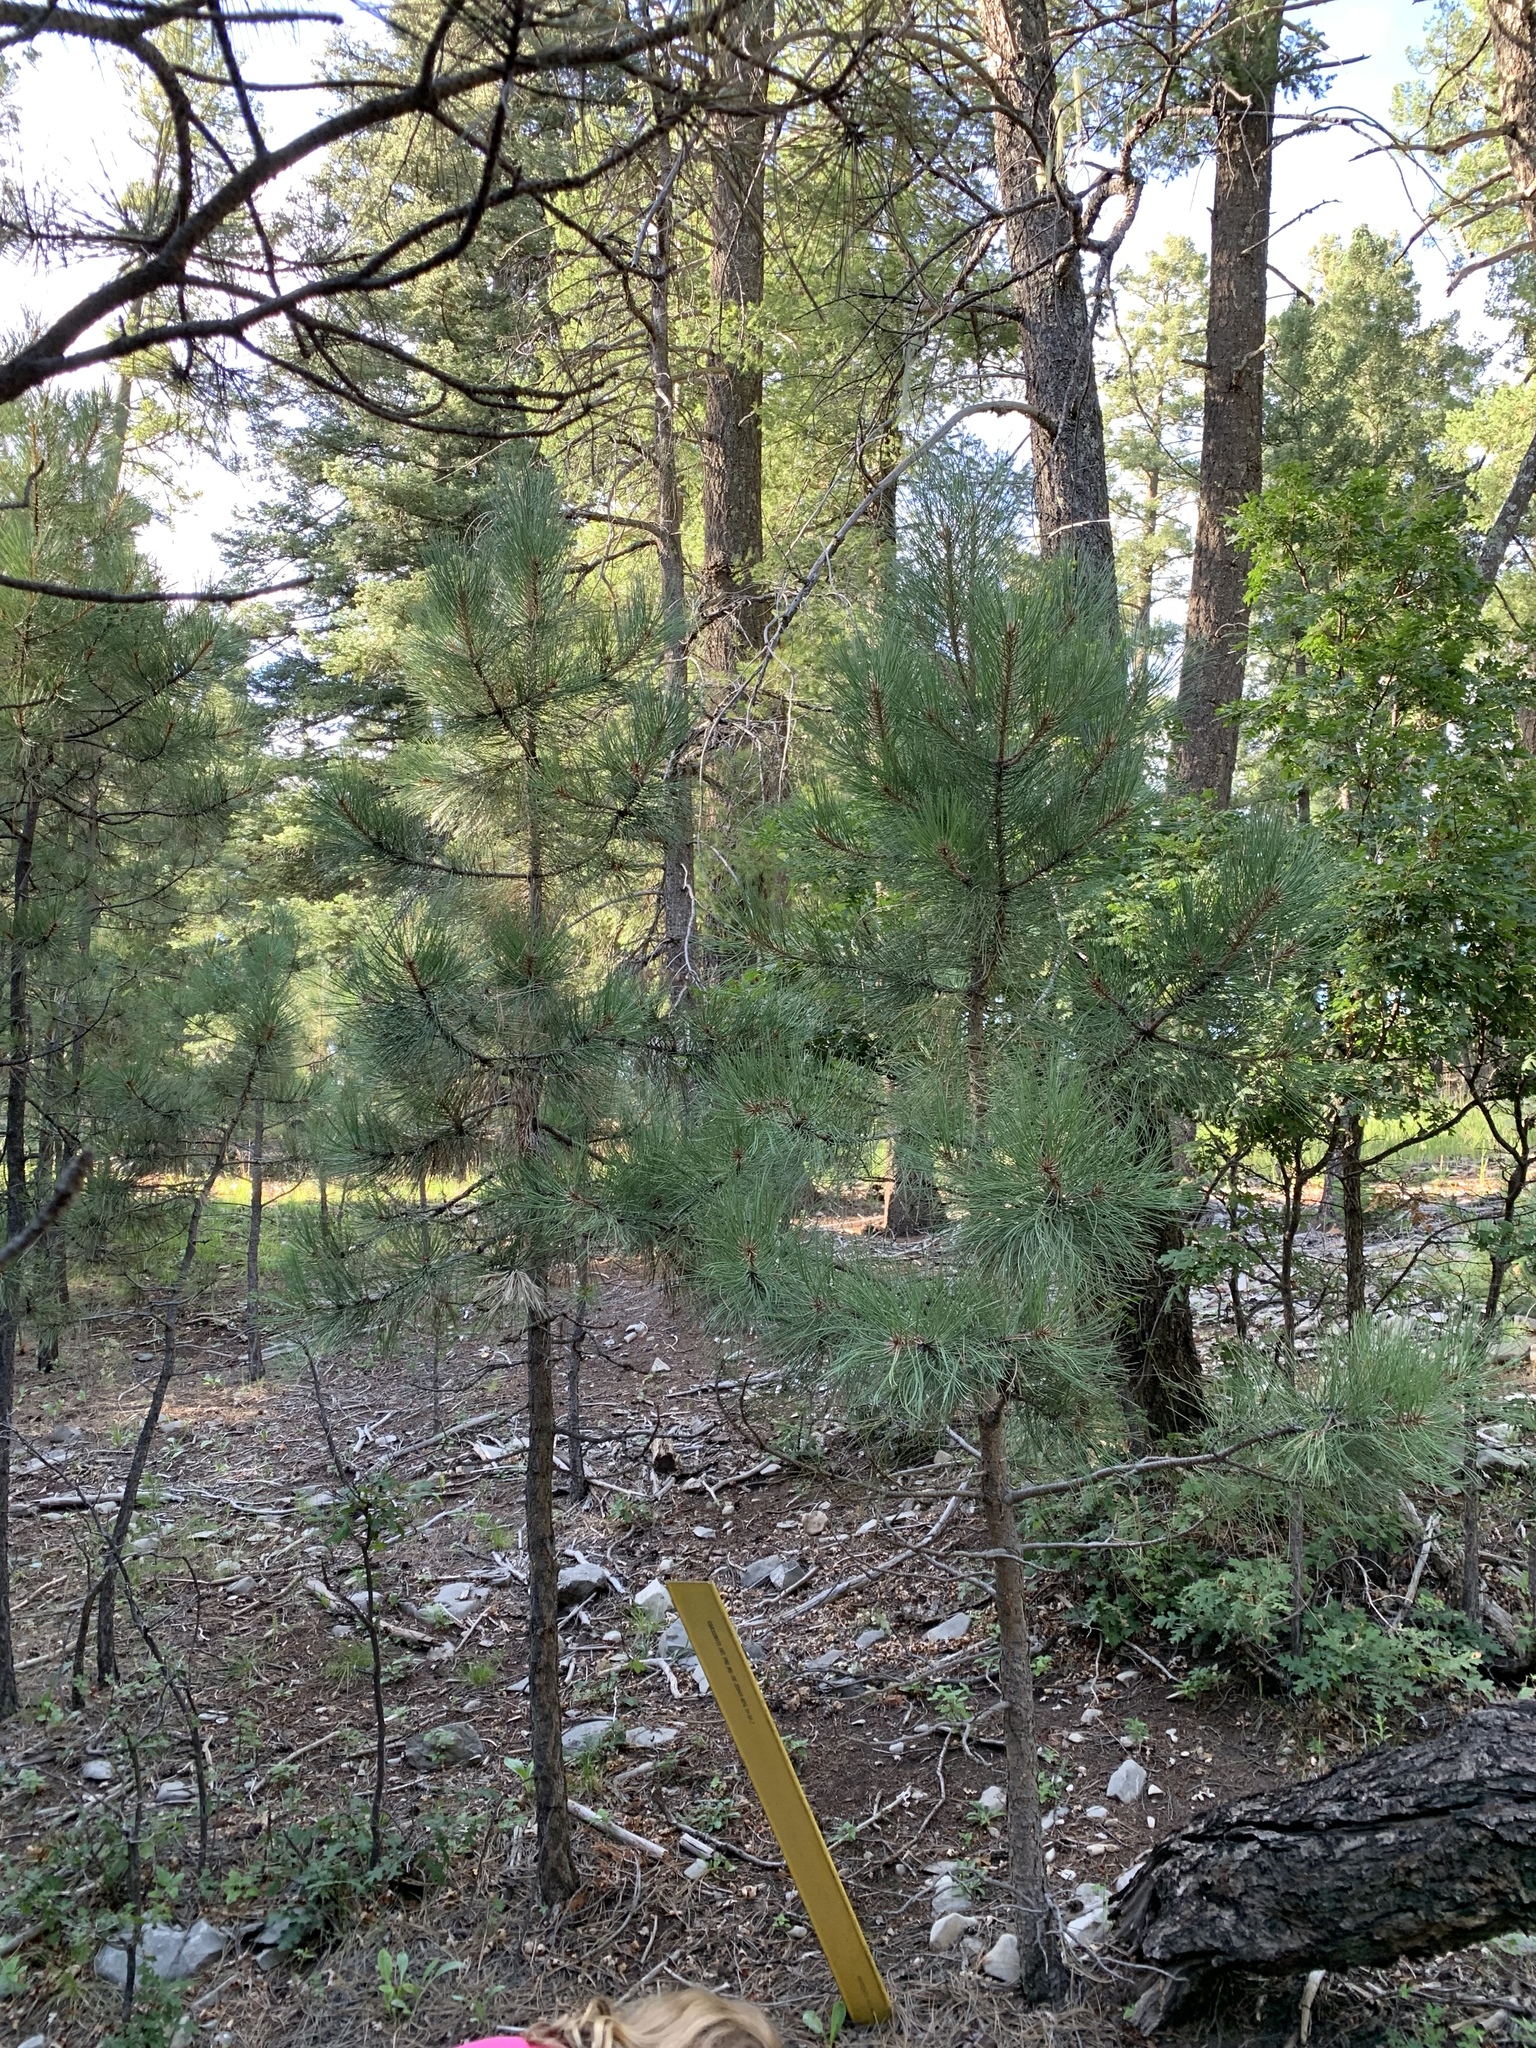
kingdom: Plantae
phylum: Tracheophyta
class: Pinopsida
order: Pinales
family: Pinaceae
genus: Pinus
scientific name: Pinus ponderosa
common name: Western yellow-pine
